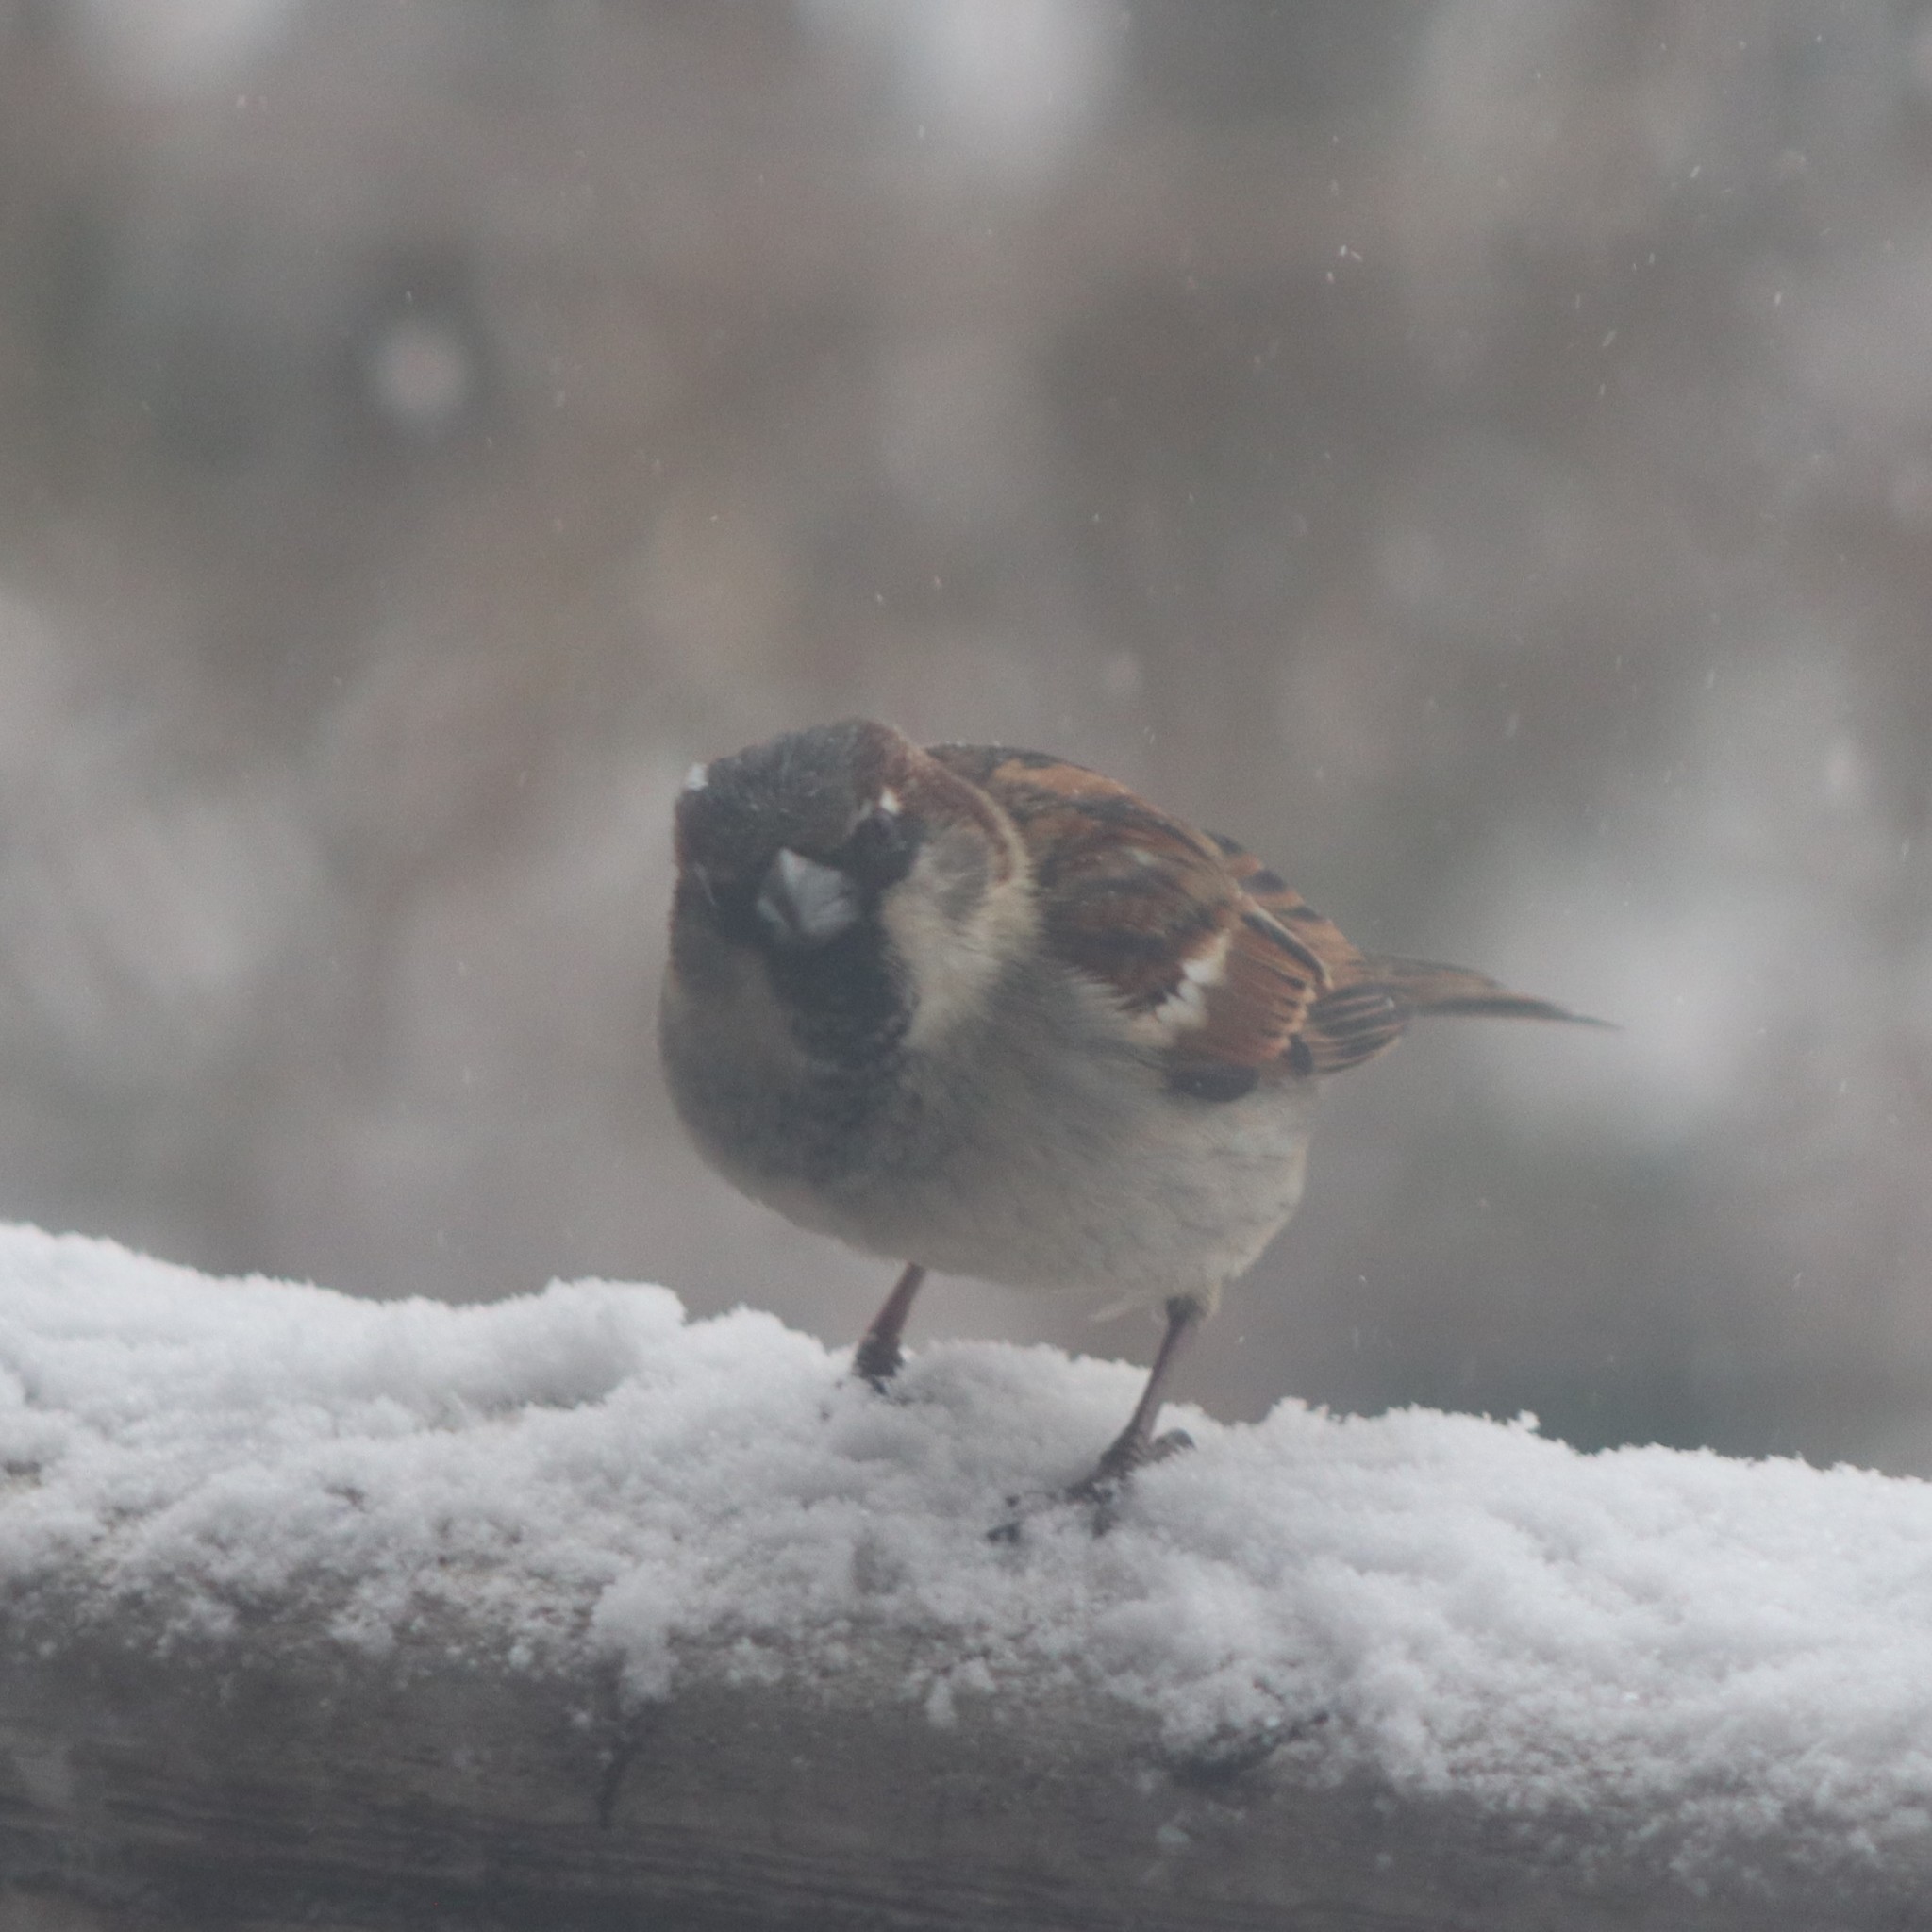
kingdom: Animalia
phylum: Chordata
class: Aves
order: Passeriformes
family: Passeridae
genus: Passer
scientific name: Passer domesticus
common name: House sparrow
